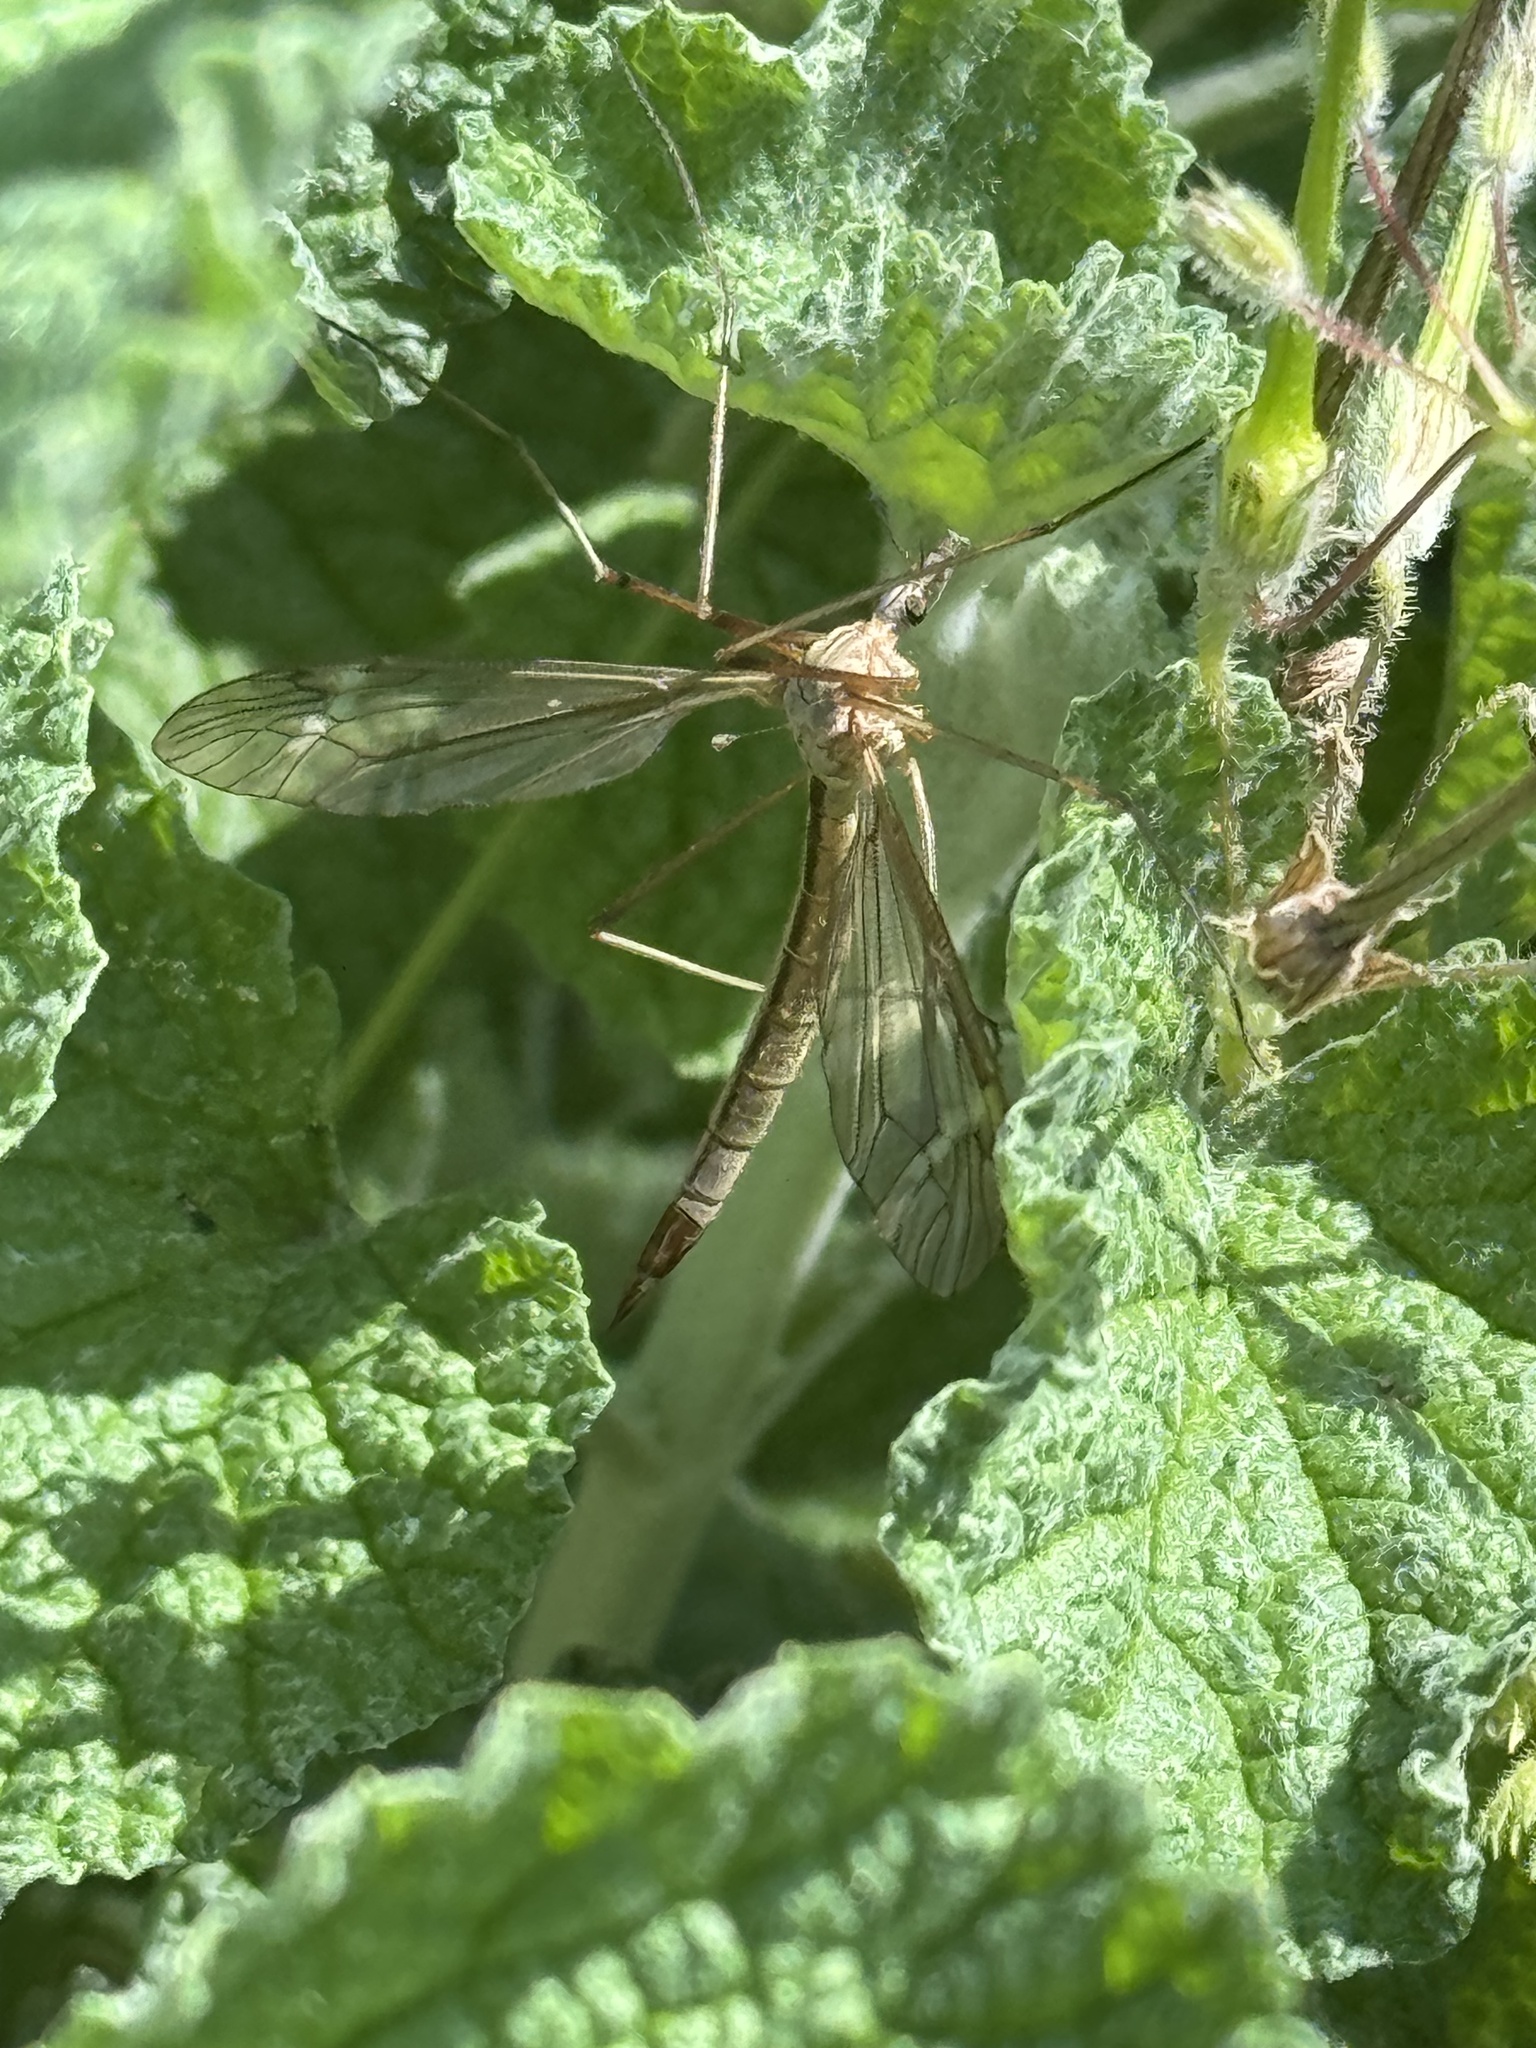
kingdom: Animalia
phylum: Arthropoda
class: Insecta
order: Diptera
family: Tipulidae
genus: Tipula
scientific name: Tipula oleracea
